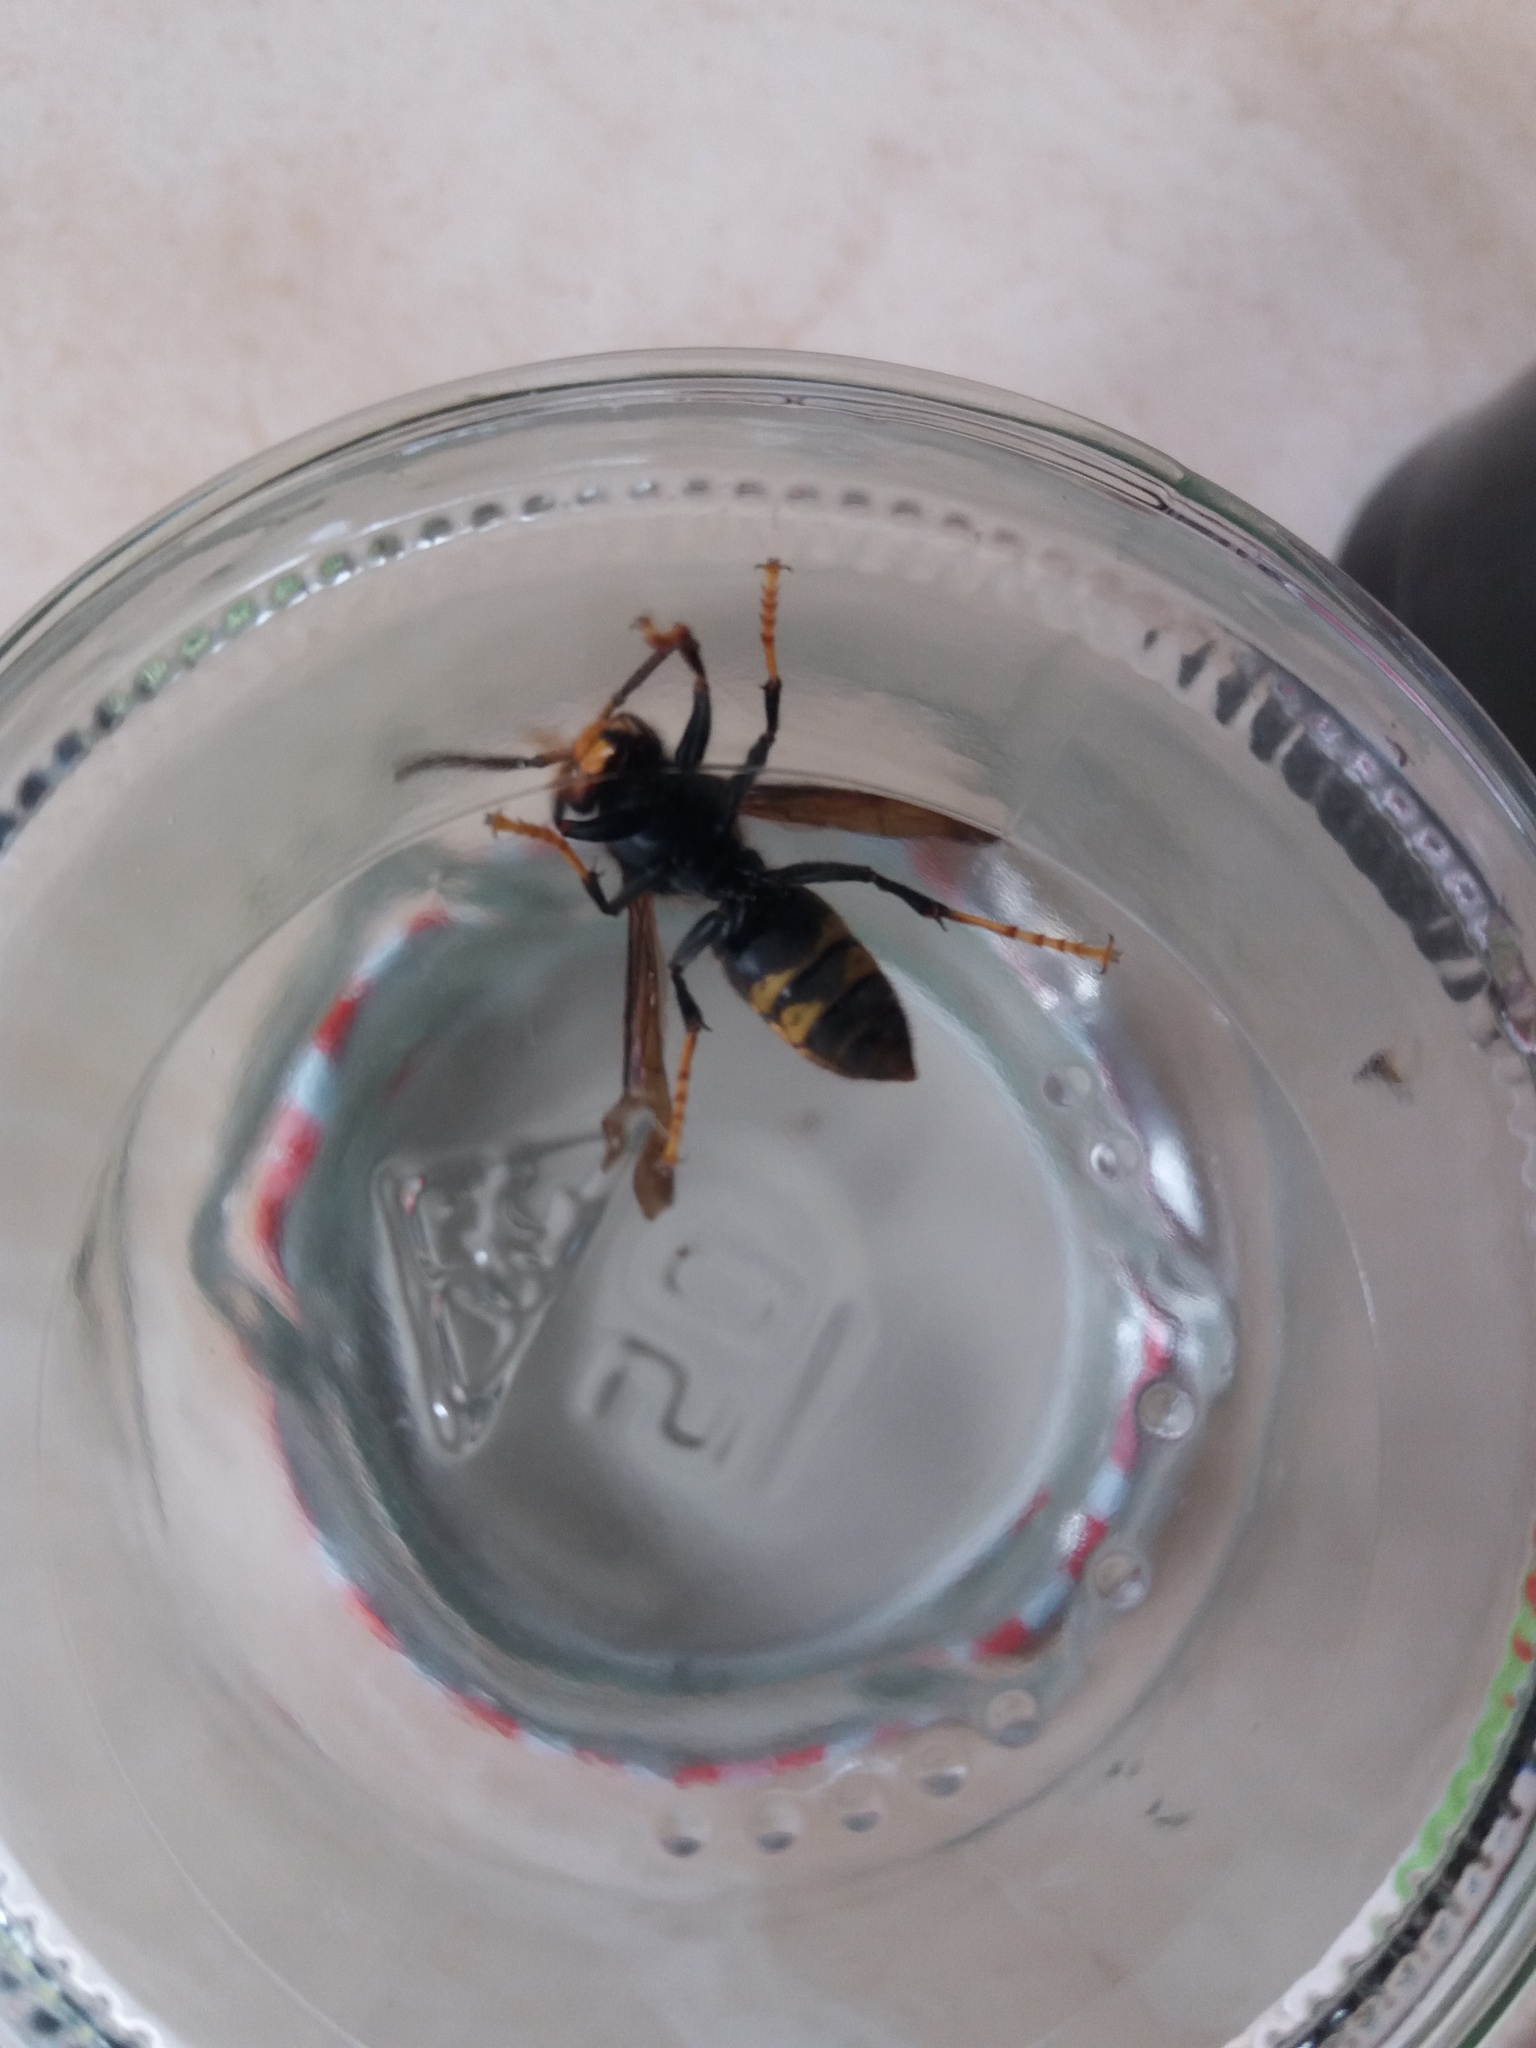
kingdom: Animalia
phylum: Arthropoda
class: Insecta
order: Hymenoptera
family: Vespidae
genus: Vespa
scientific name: Vespa velutina
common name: Asian hornet
